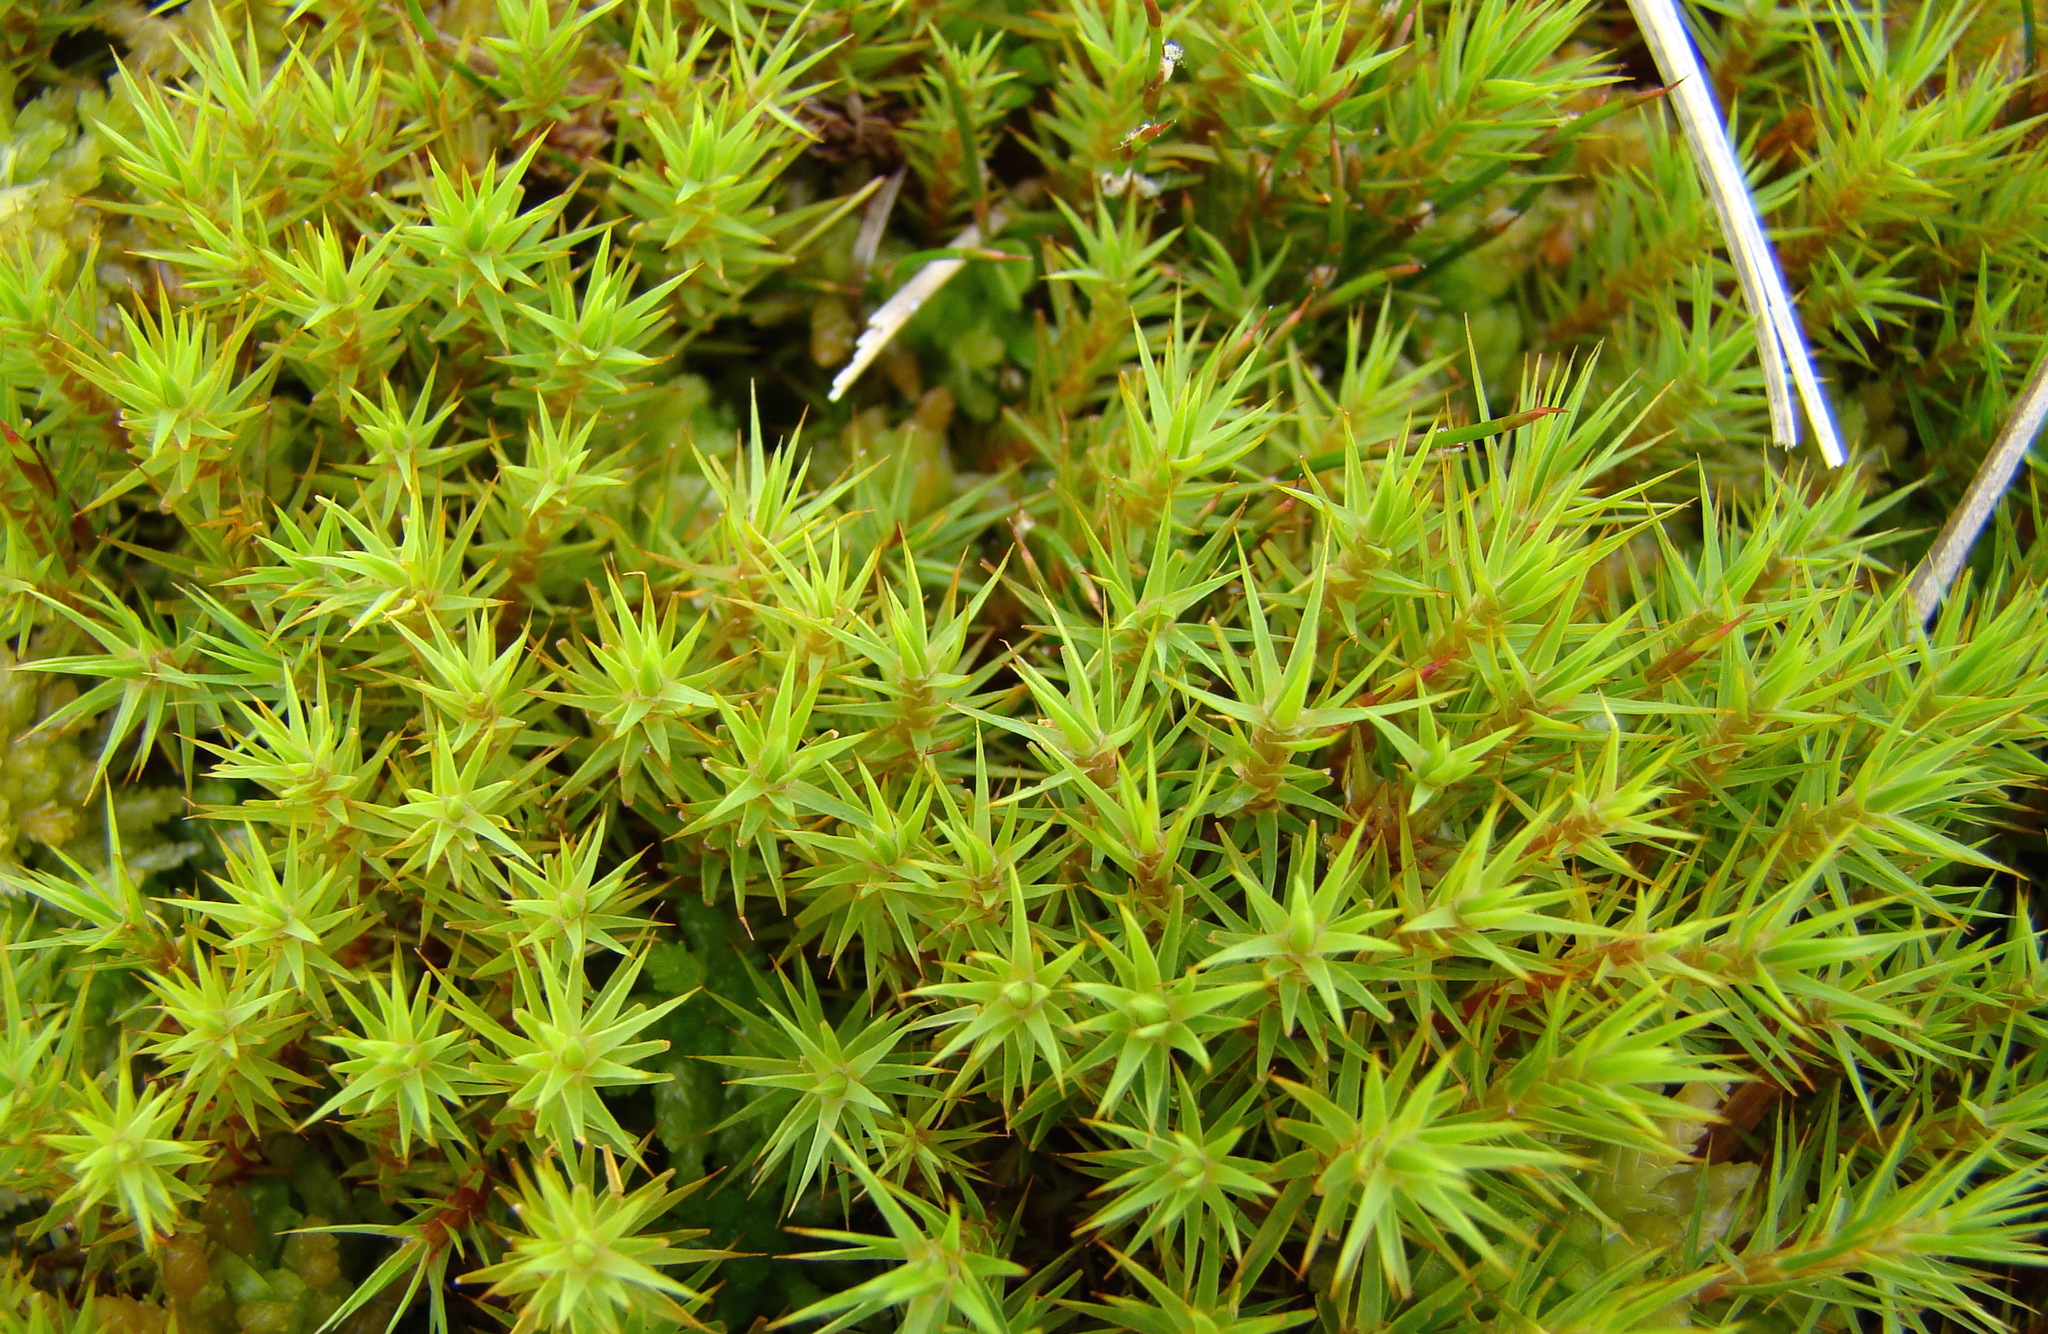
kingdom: Plantae
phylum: Bryophyta
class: Polytrichopsida
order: Polytrichales
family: Polytrichaceae
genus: Polytrichum
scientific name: Polytrichum juniperinum
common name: Juniper haircap moss
